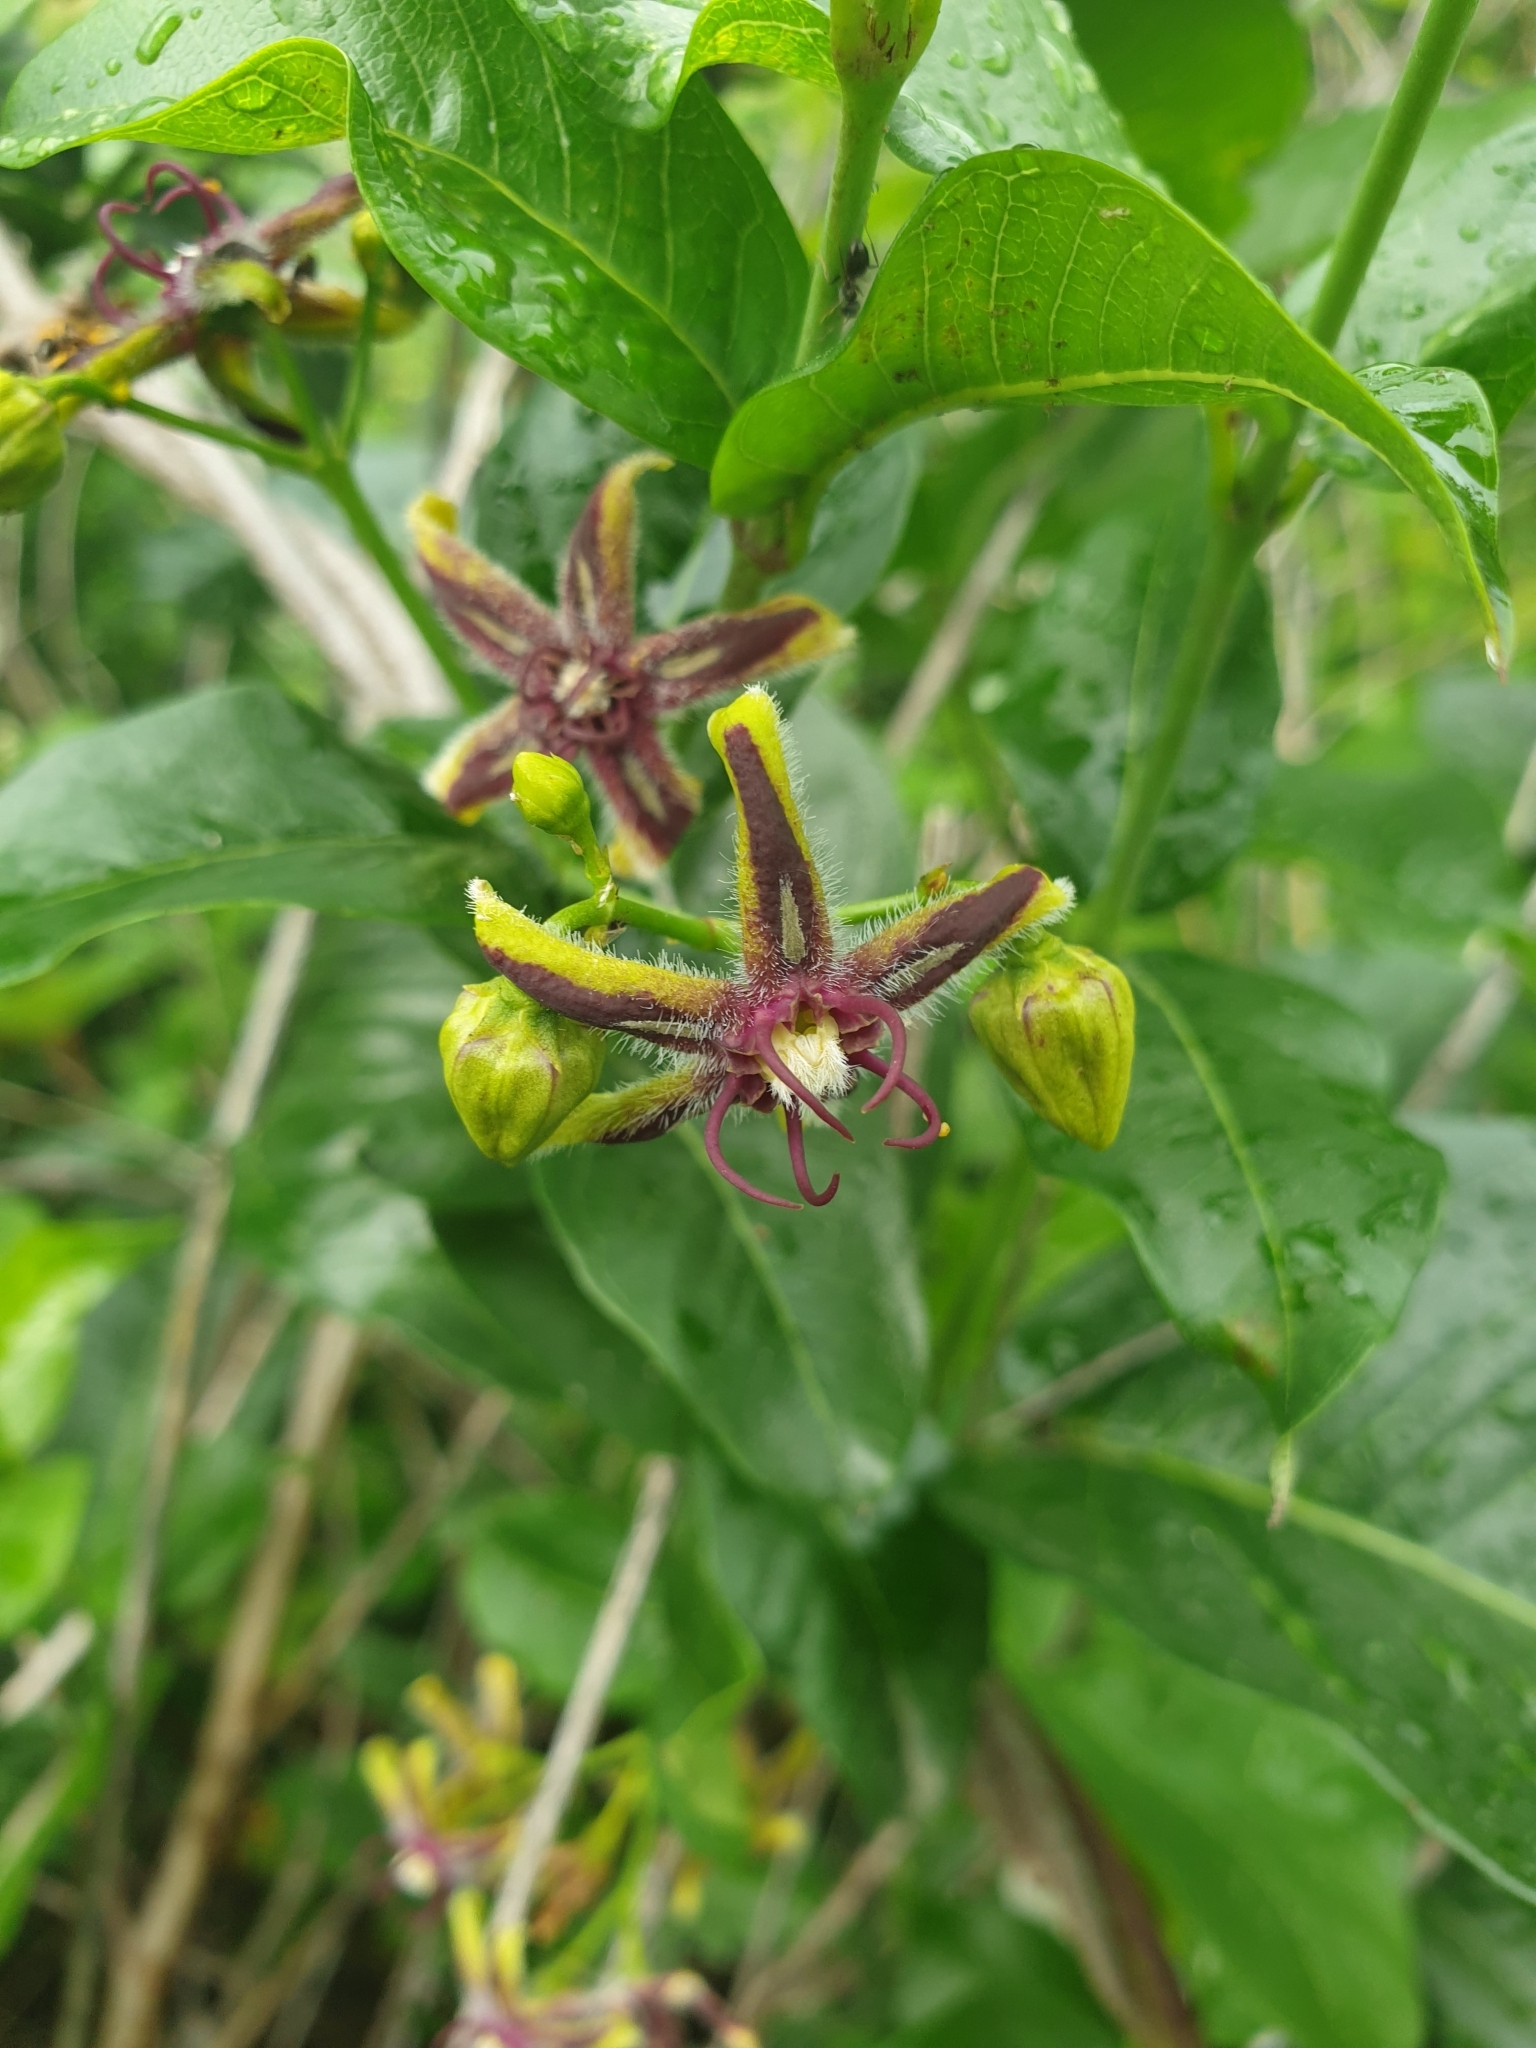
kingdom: Plantae
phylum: Tracheophyta
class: Magnoliopsida
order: Gentianales
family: Apocynaceae
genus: Periploca
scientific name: Periploca graeca
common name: Silkvine
